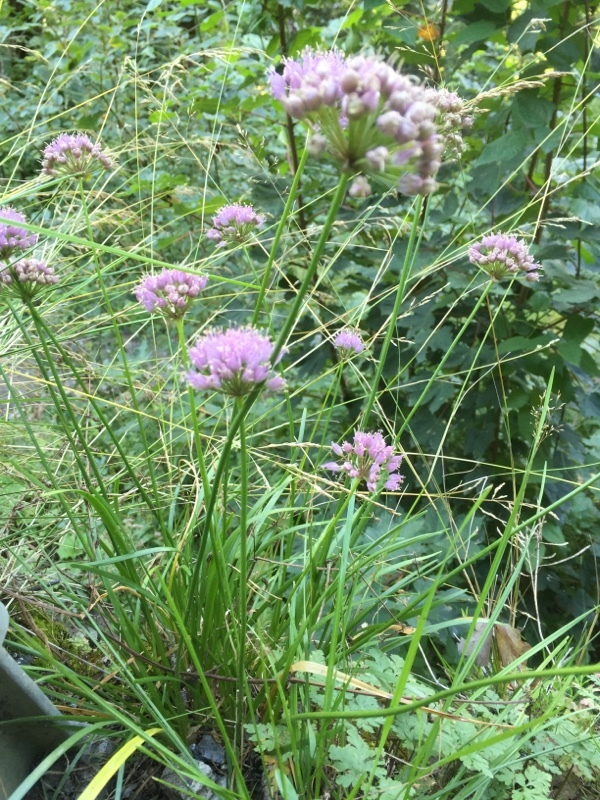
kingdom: Plantae
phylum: Tracheophyta
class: Liliopsida
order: Asparagales
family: Amaryllidaceae
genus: Allium
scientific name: Allium lusitanicum
